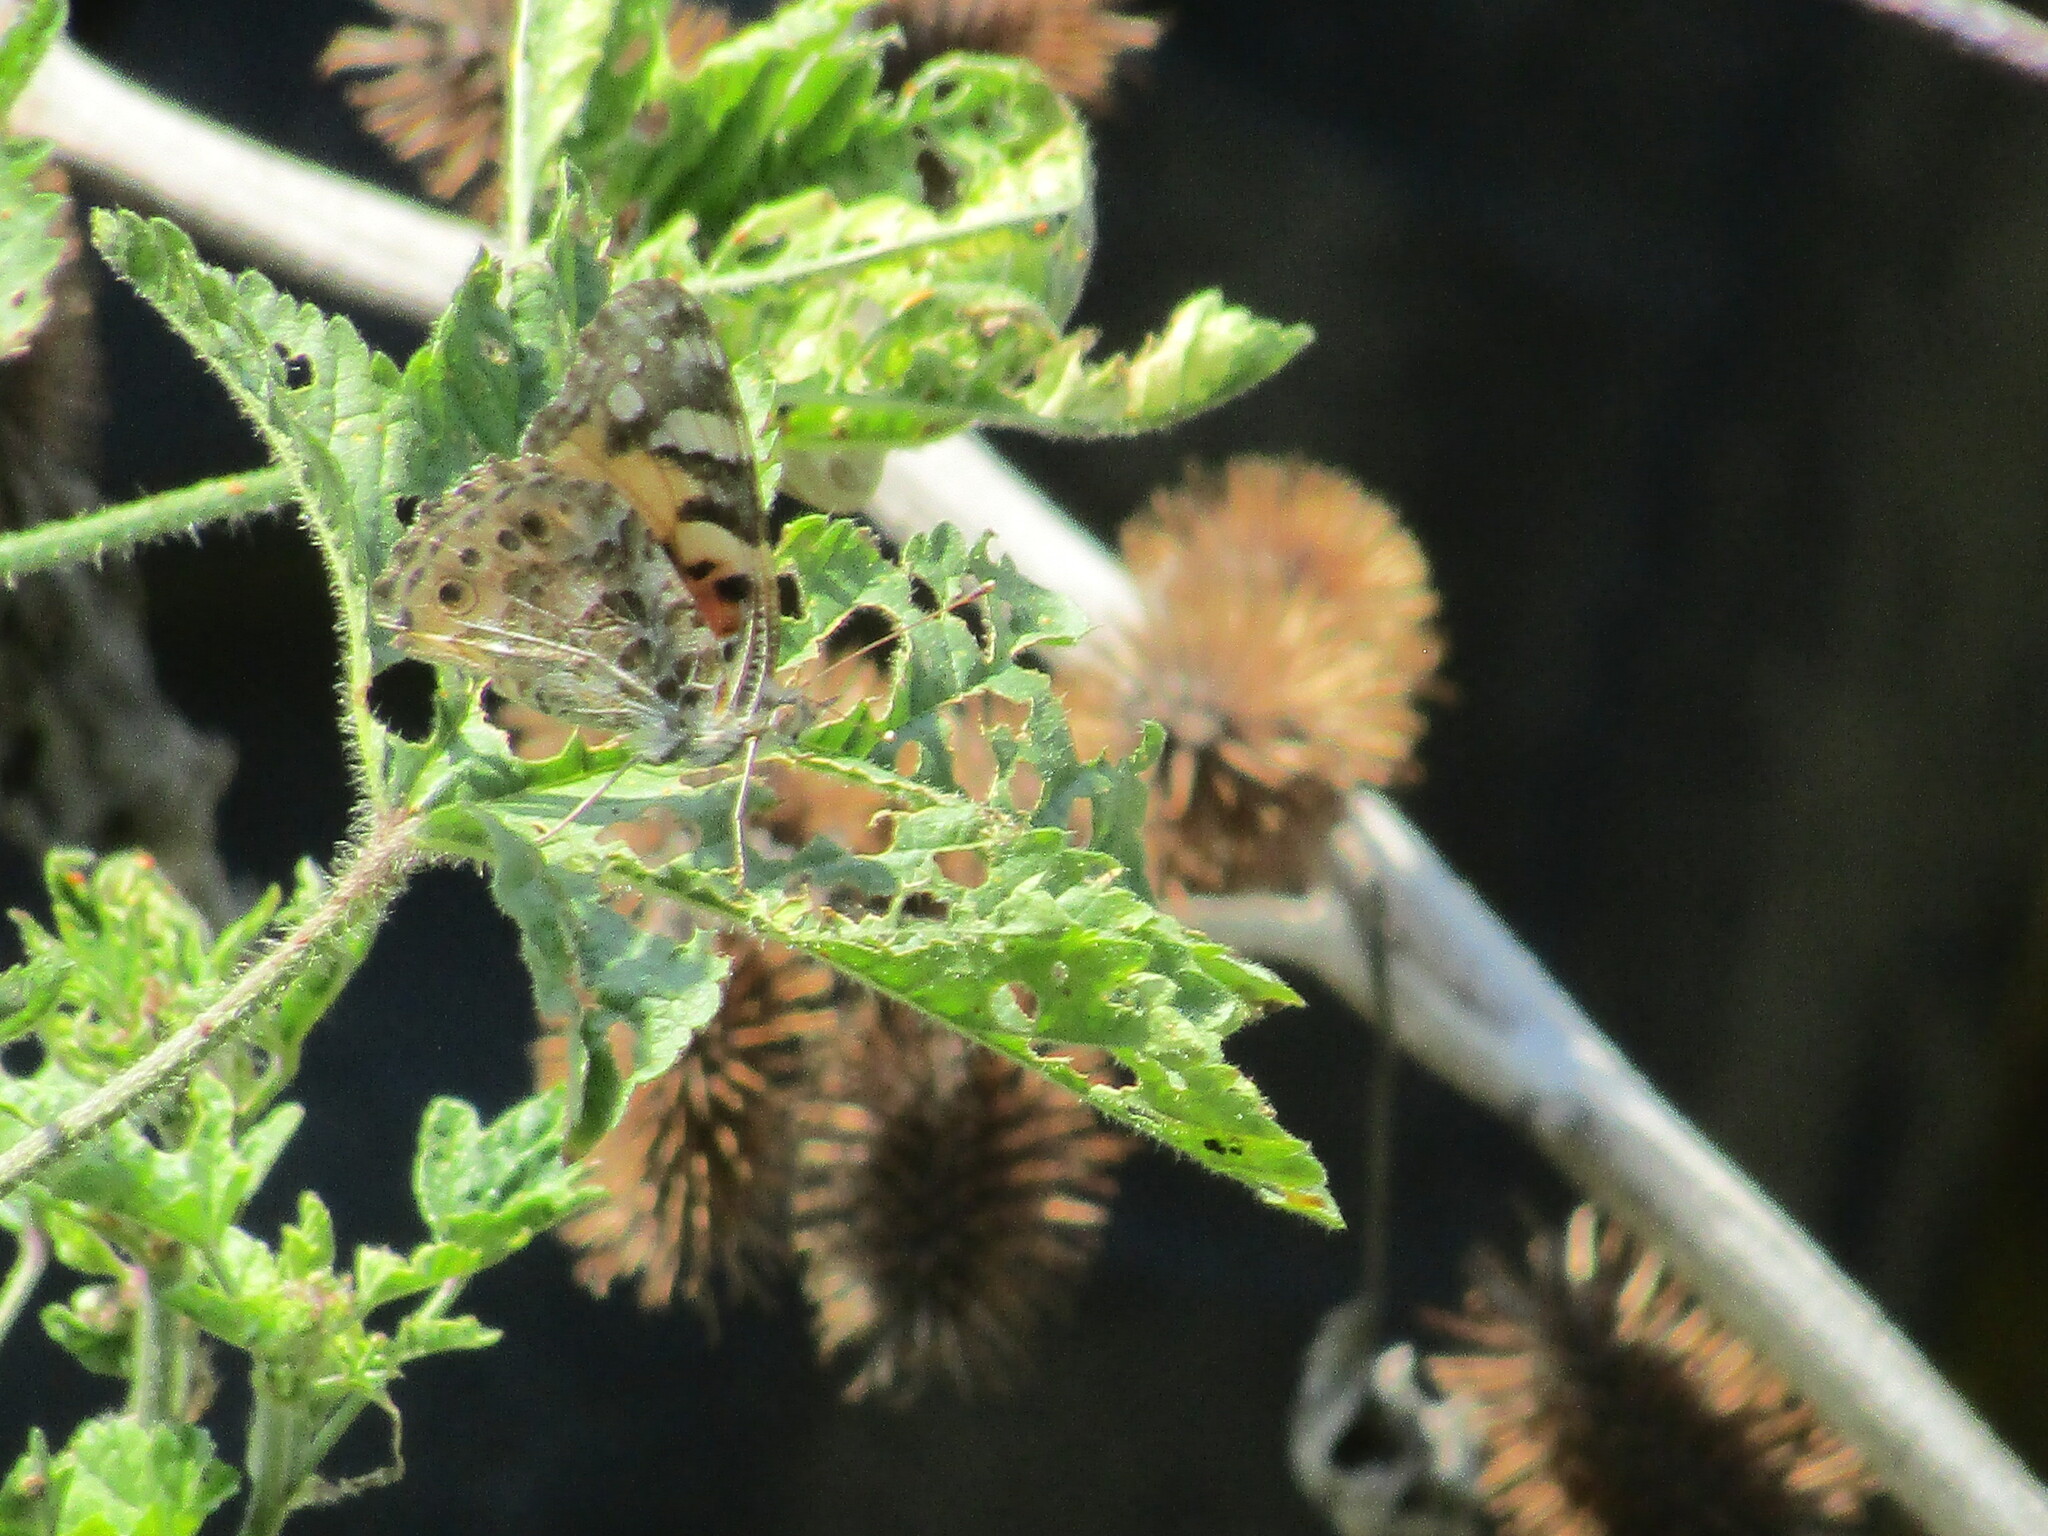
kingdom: Animalia
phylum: Arthropoda
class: Insecta
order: Lepidoptera
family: Nymphalidae
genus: Vanessa
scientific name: Vanessa cardui
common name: Painted lady
